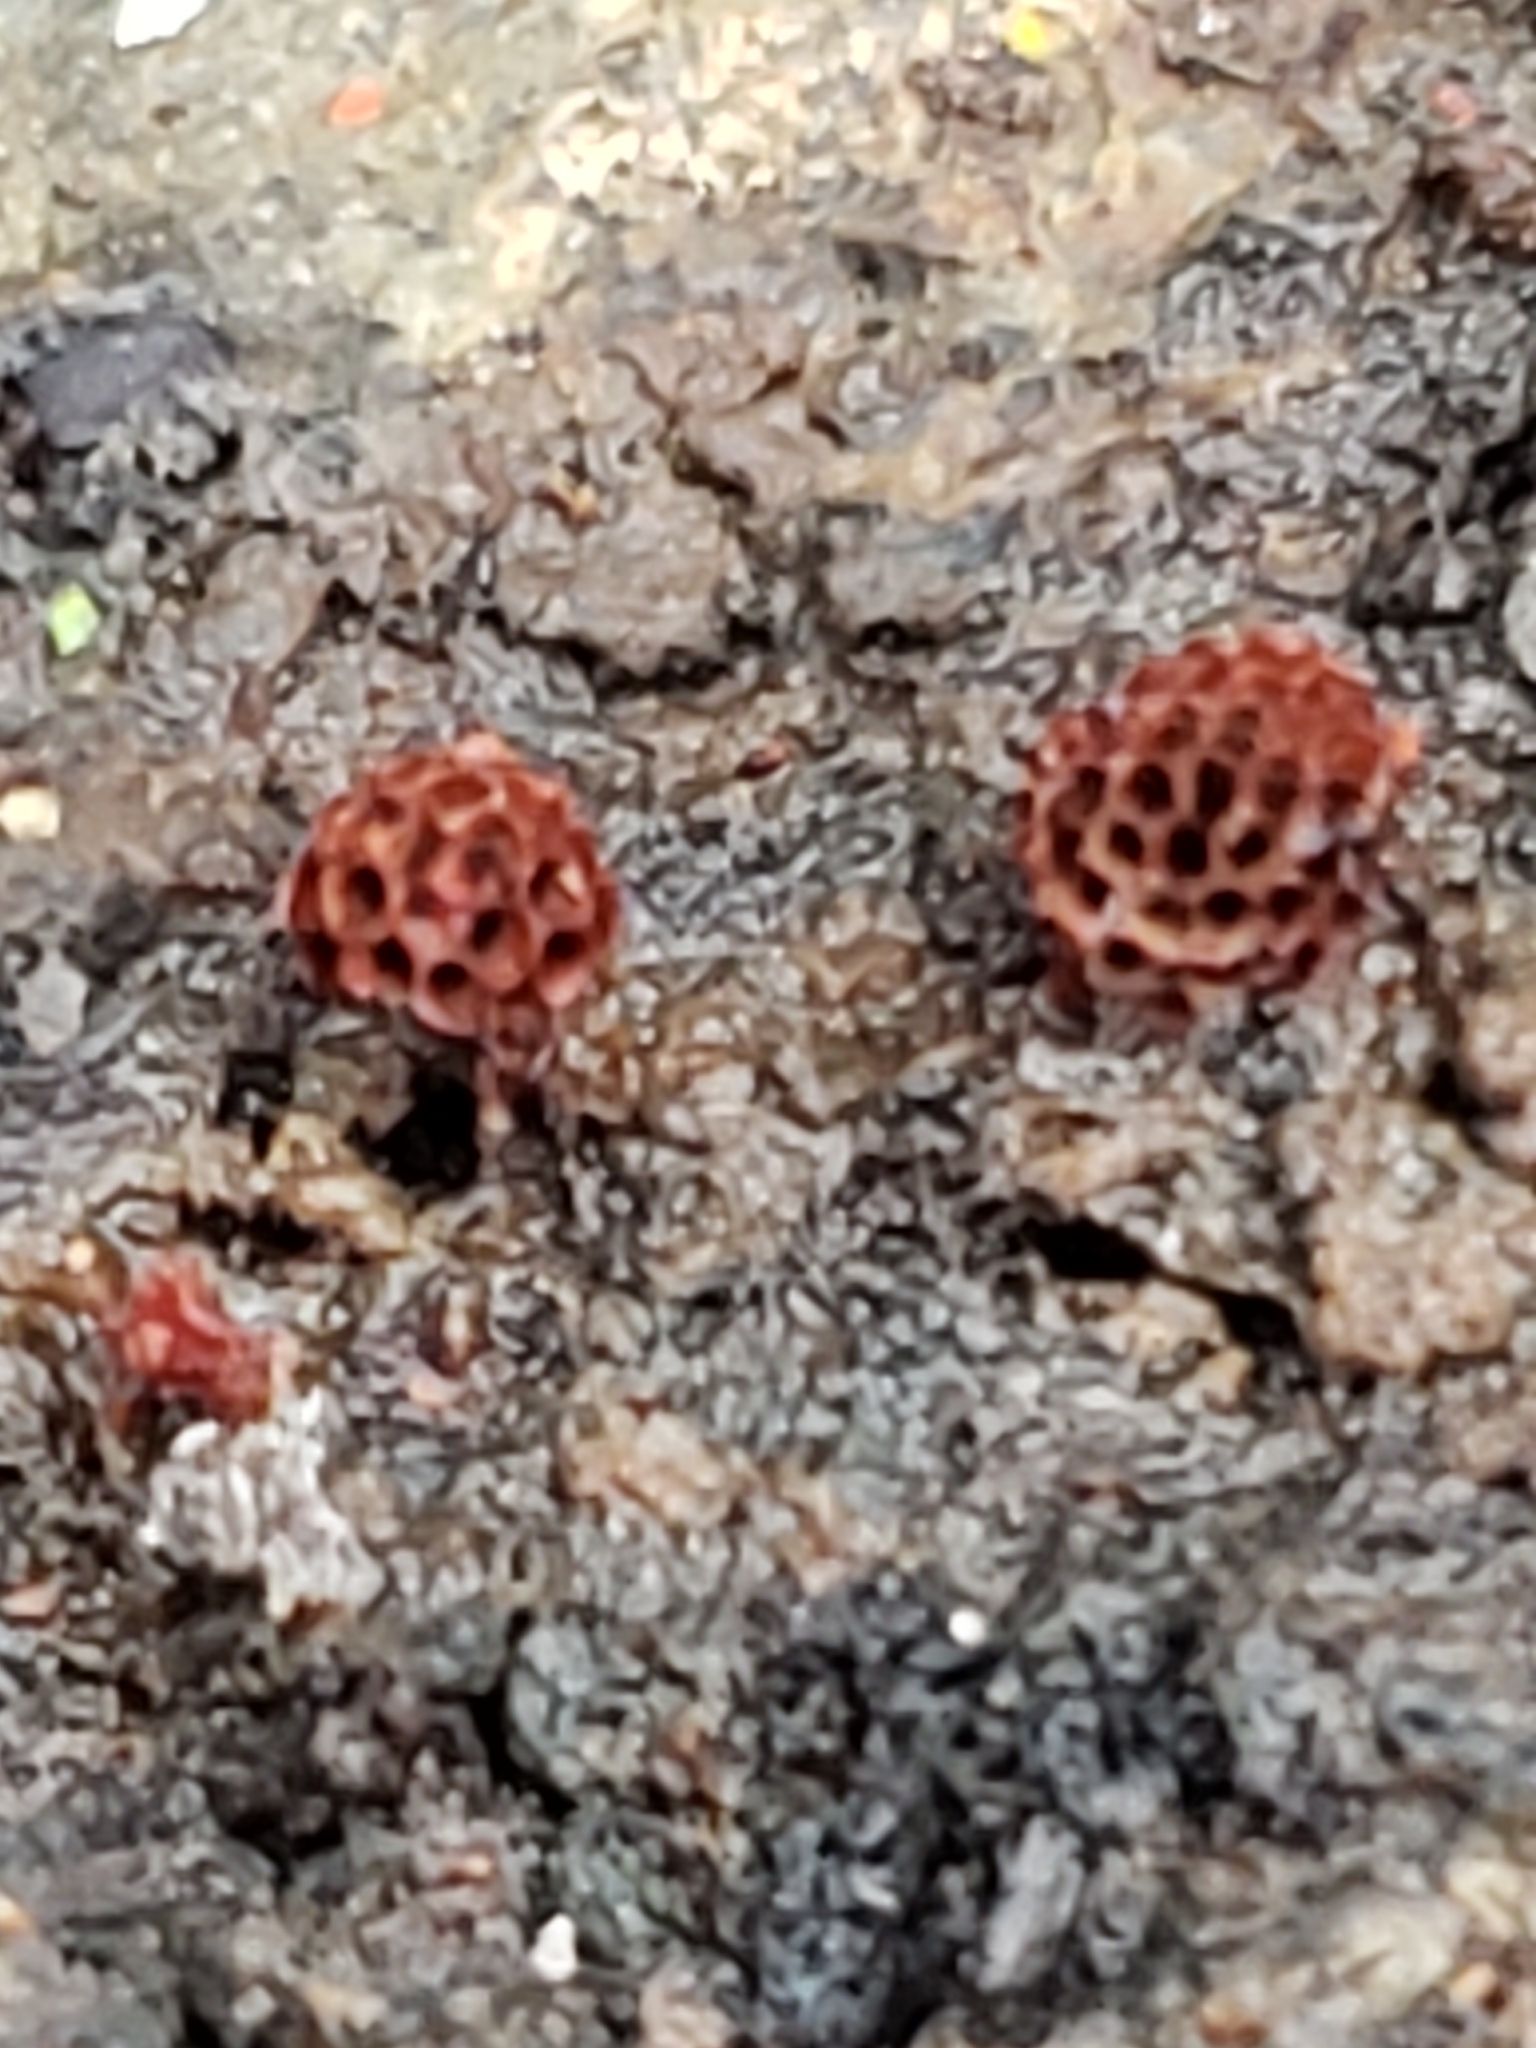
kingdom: Protozoa
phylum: Mycetozoa
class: Myxomycetes
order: Trichiales
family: Trichiaceae
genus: Metatrichia
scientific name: Metatrichia vesparia
